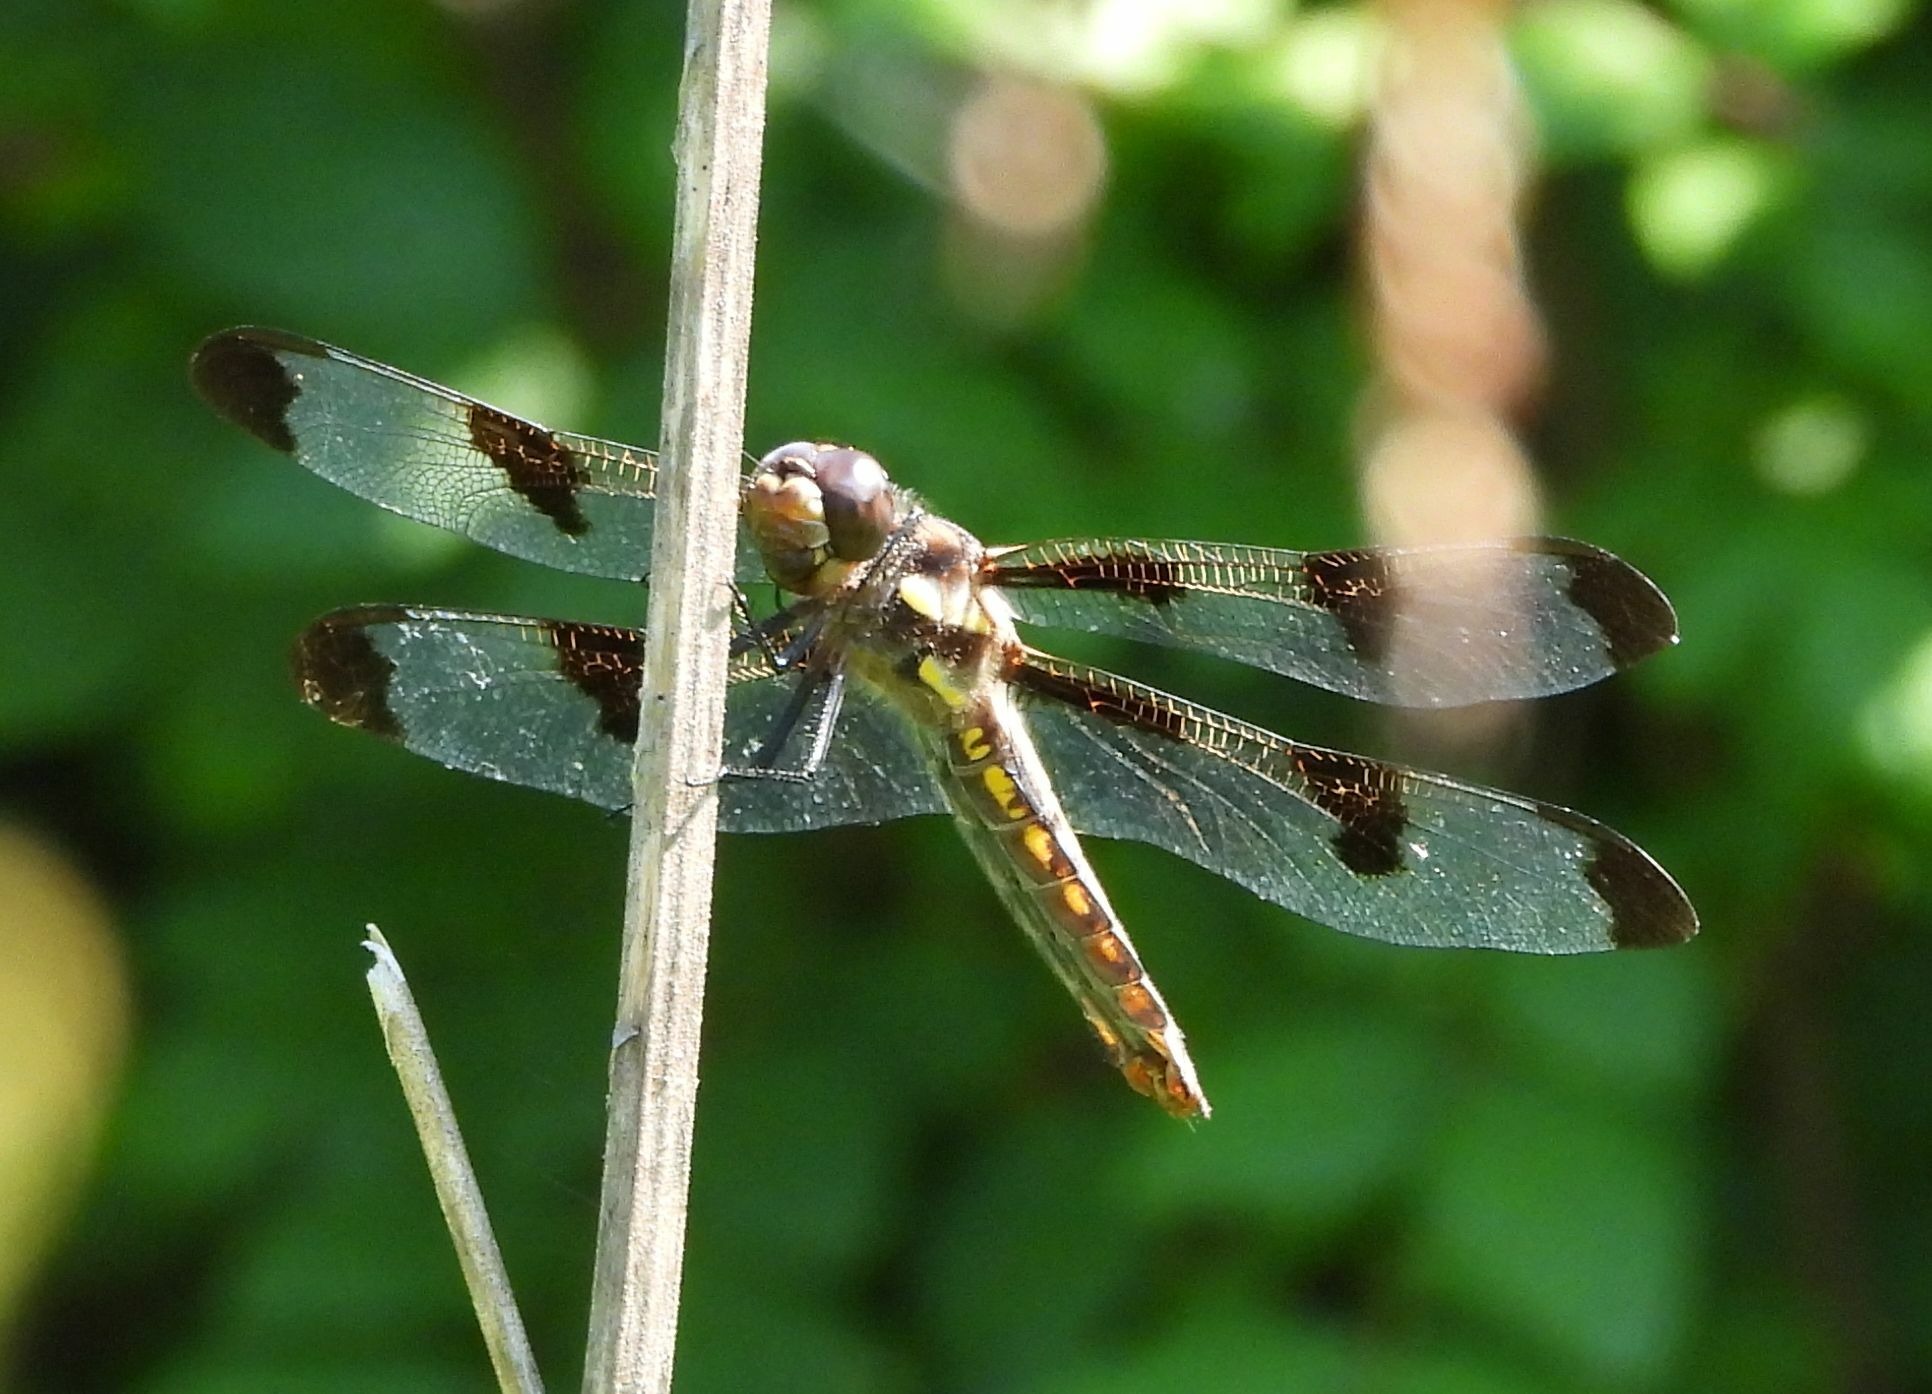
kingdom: Animalia
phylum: Arthropoda
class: Insecta
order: Odonata
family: Libellulidae
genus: Libellula
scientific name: Libellula pulchella
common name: Twelve-spotted skimmer
